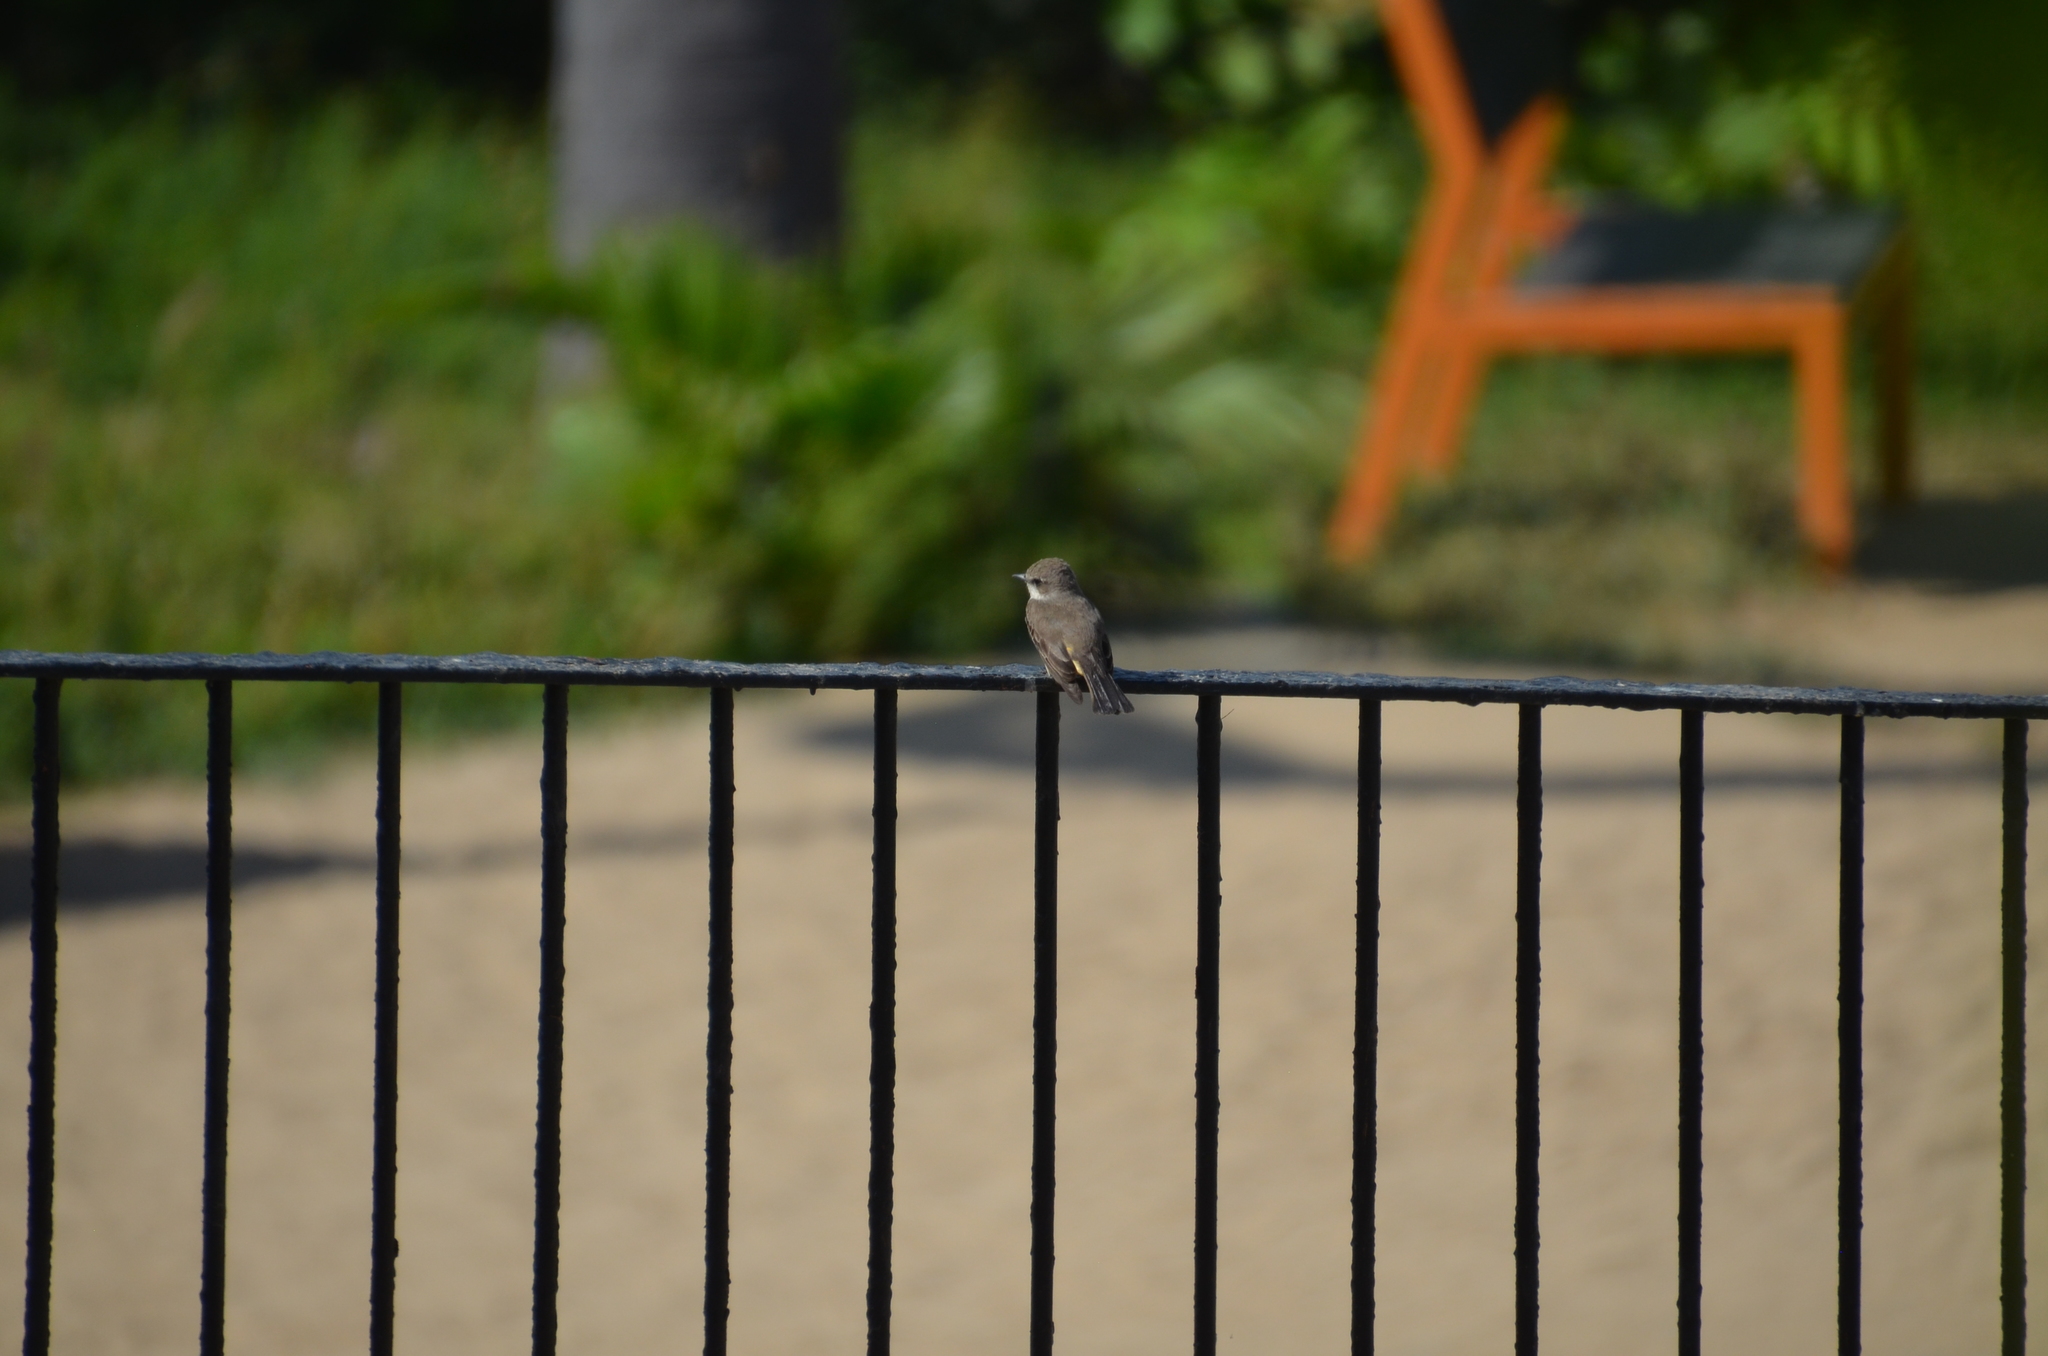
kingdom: Animalia
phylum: Chordata
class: Aves
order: Passeriformes
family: Tyrannidae
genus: Pyrocephalus
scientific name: Pyrocephalus rubinus
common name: Vermilion flycatcher
